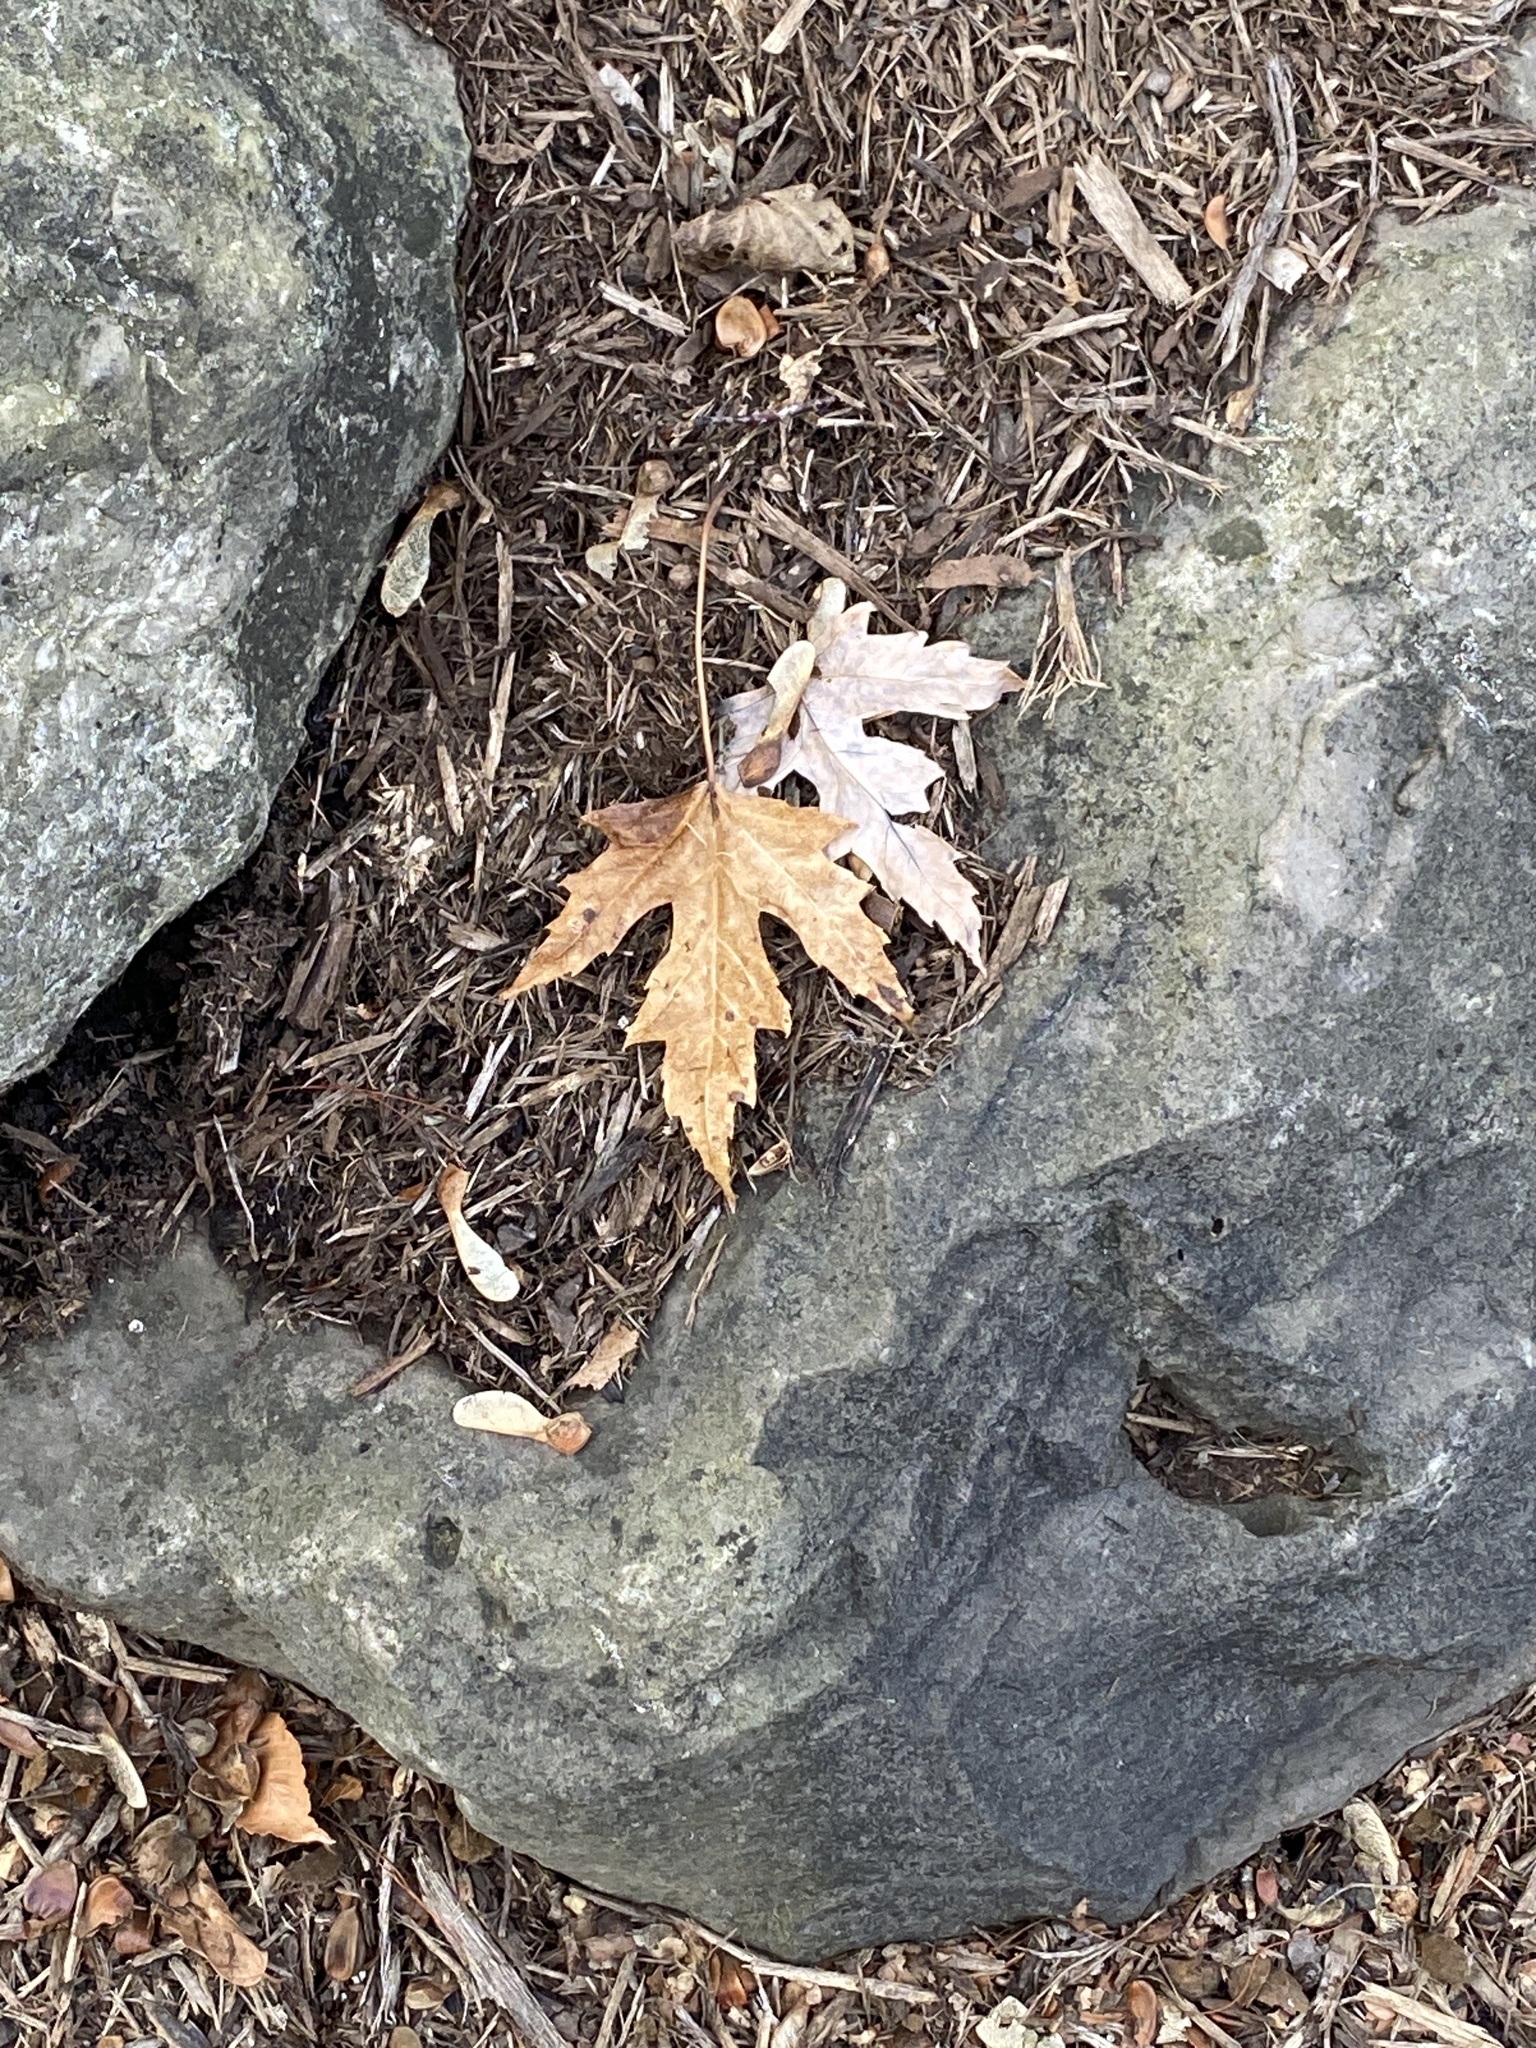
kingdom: Plantae
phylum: Tracheophyta
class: Magnoliopsida
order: Sapindales
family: Sapindaceae
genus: Acer
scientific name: Acer saccharinum
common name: Silver maple
